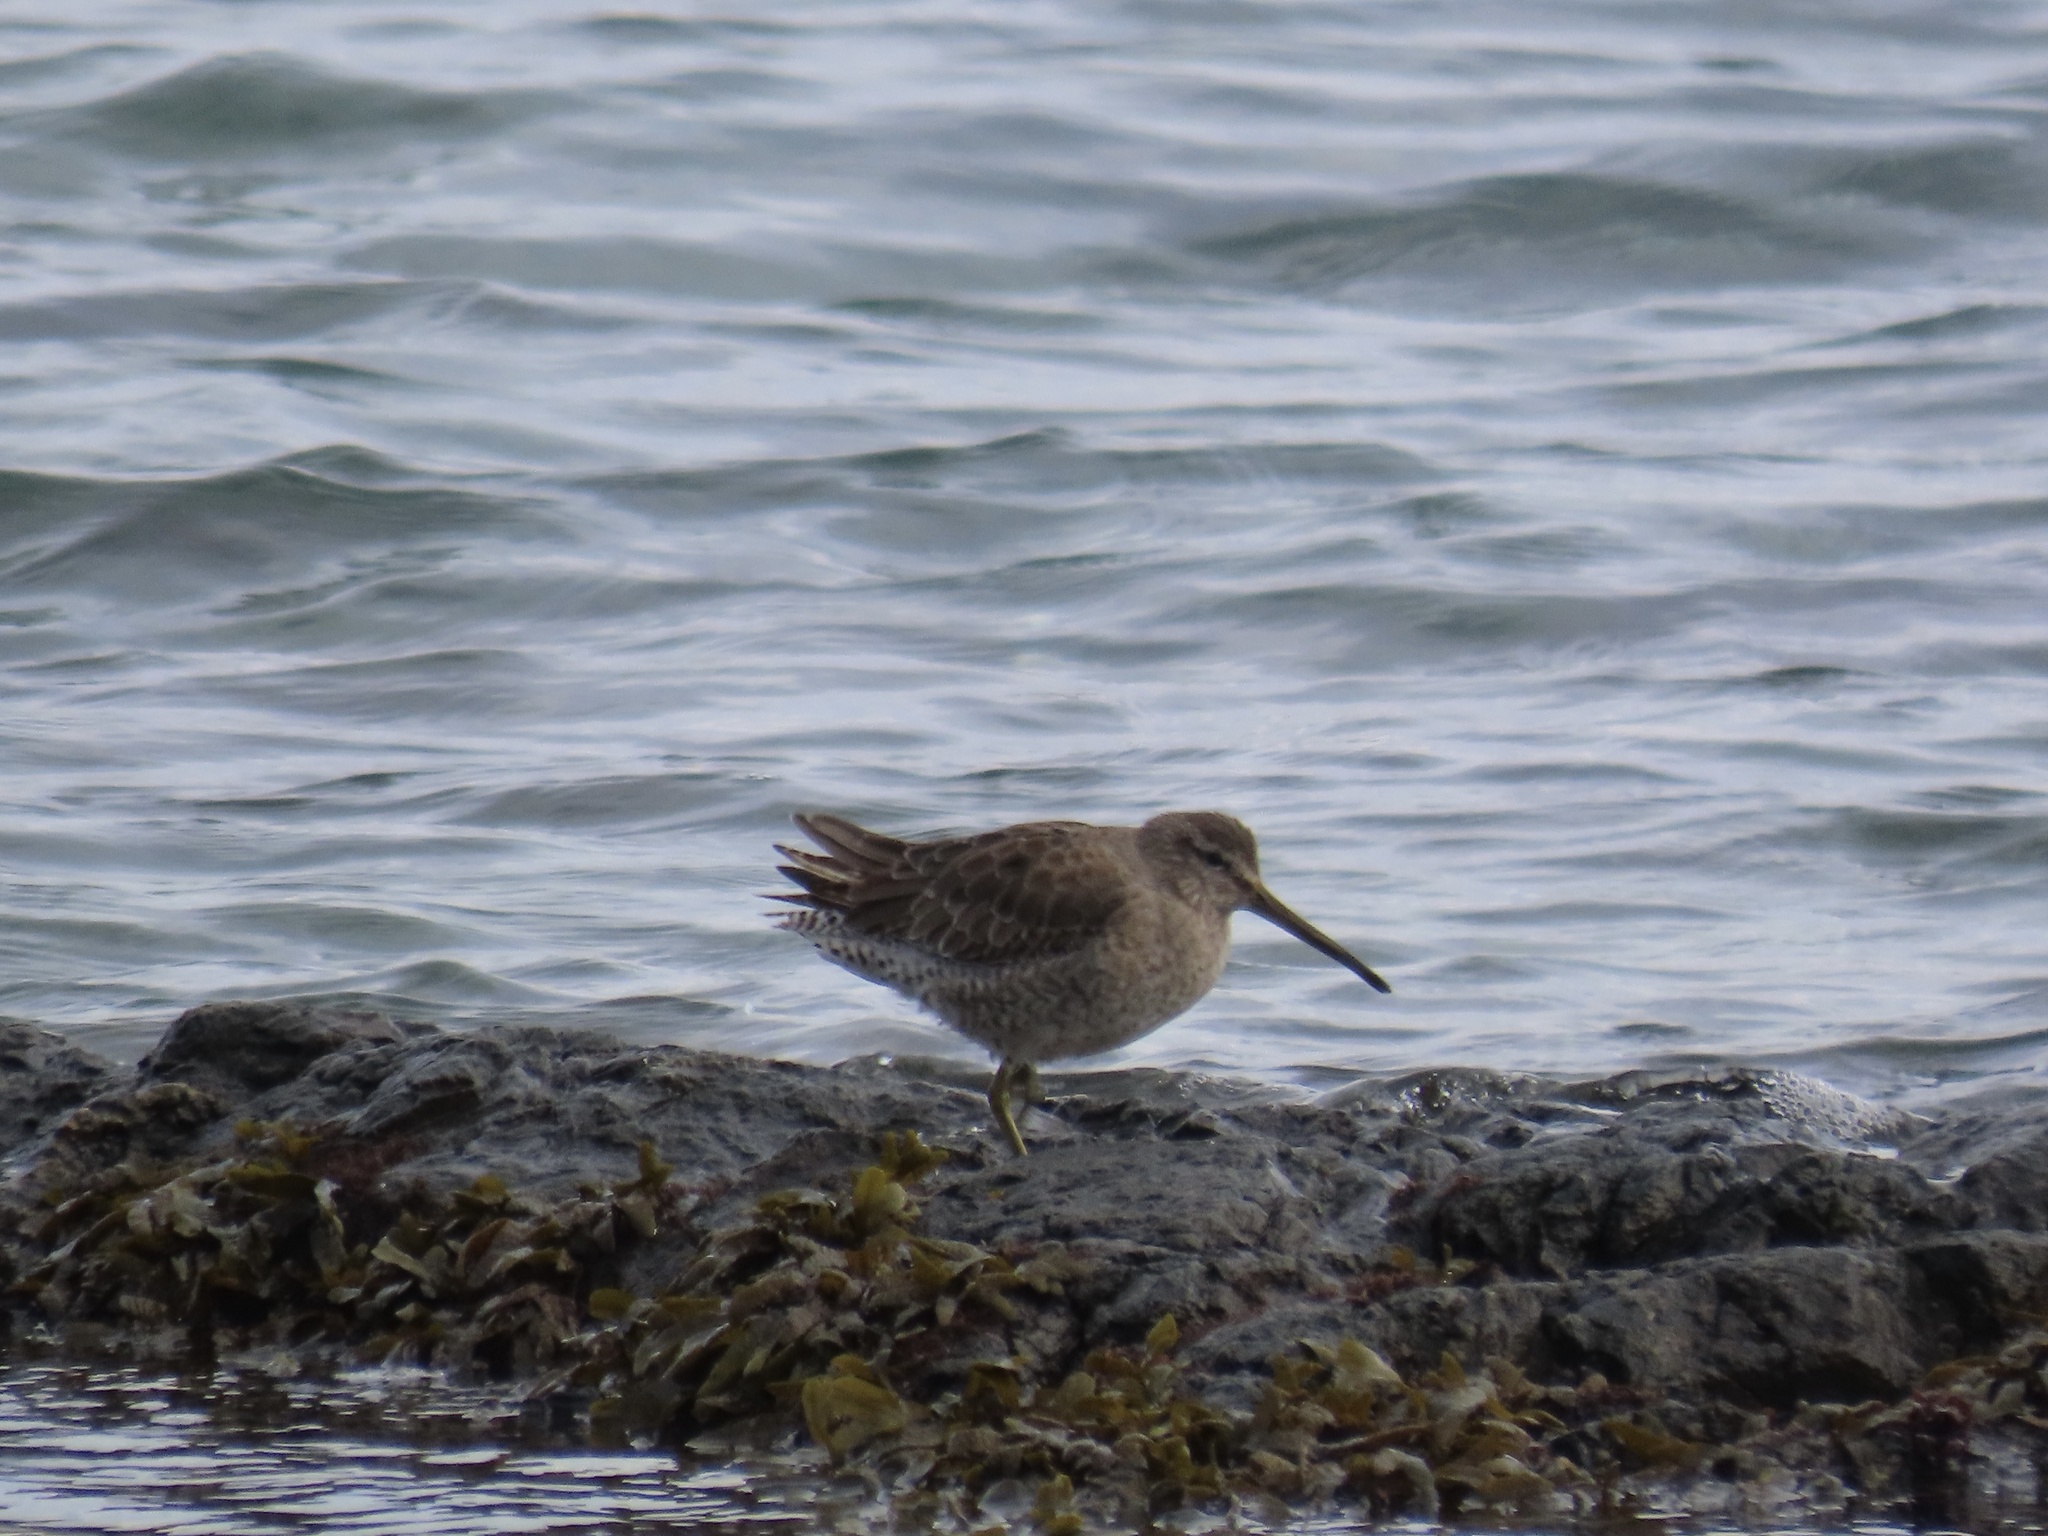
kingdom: Animalia
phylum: Chordata
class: Aves
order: Charadriiformes
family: Scolopacidae
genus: Limnodromus
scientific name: Limnodromus griseus
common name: Short-billed dowitcher
